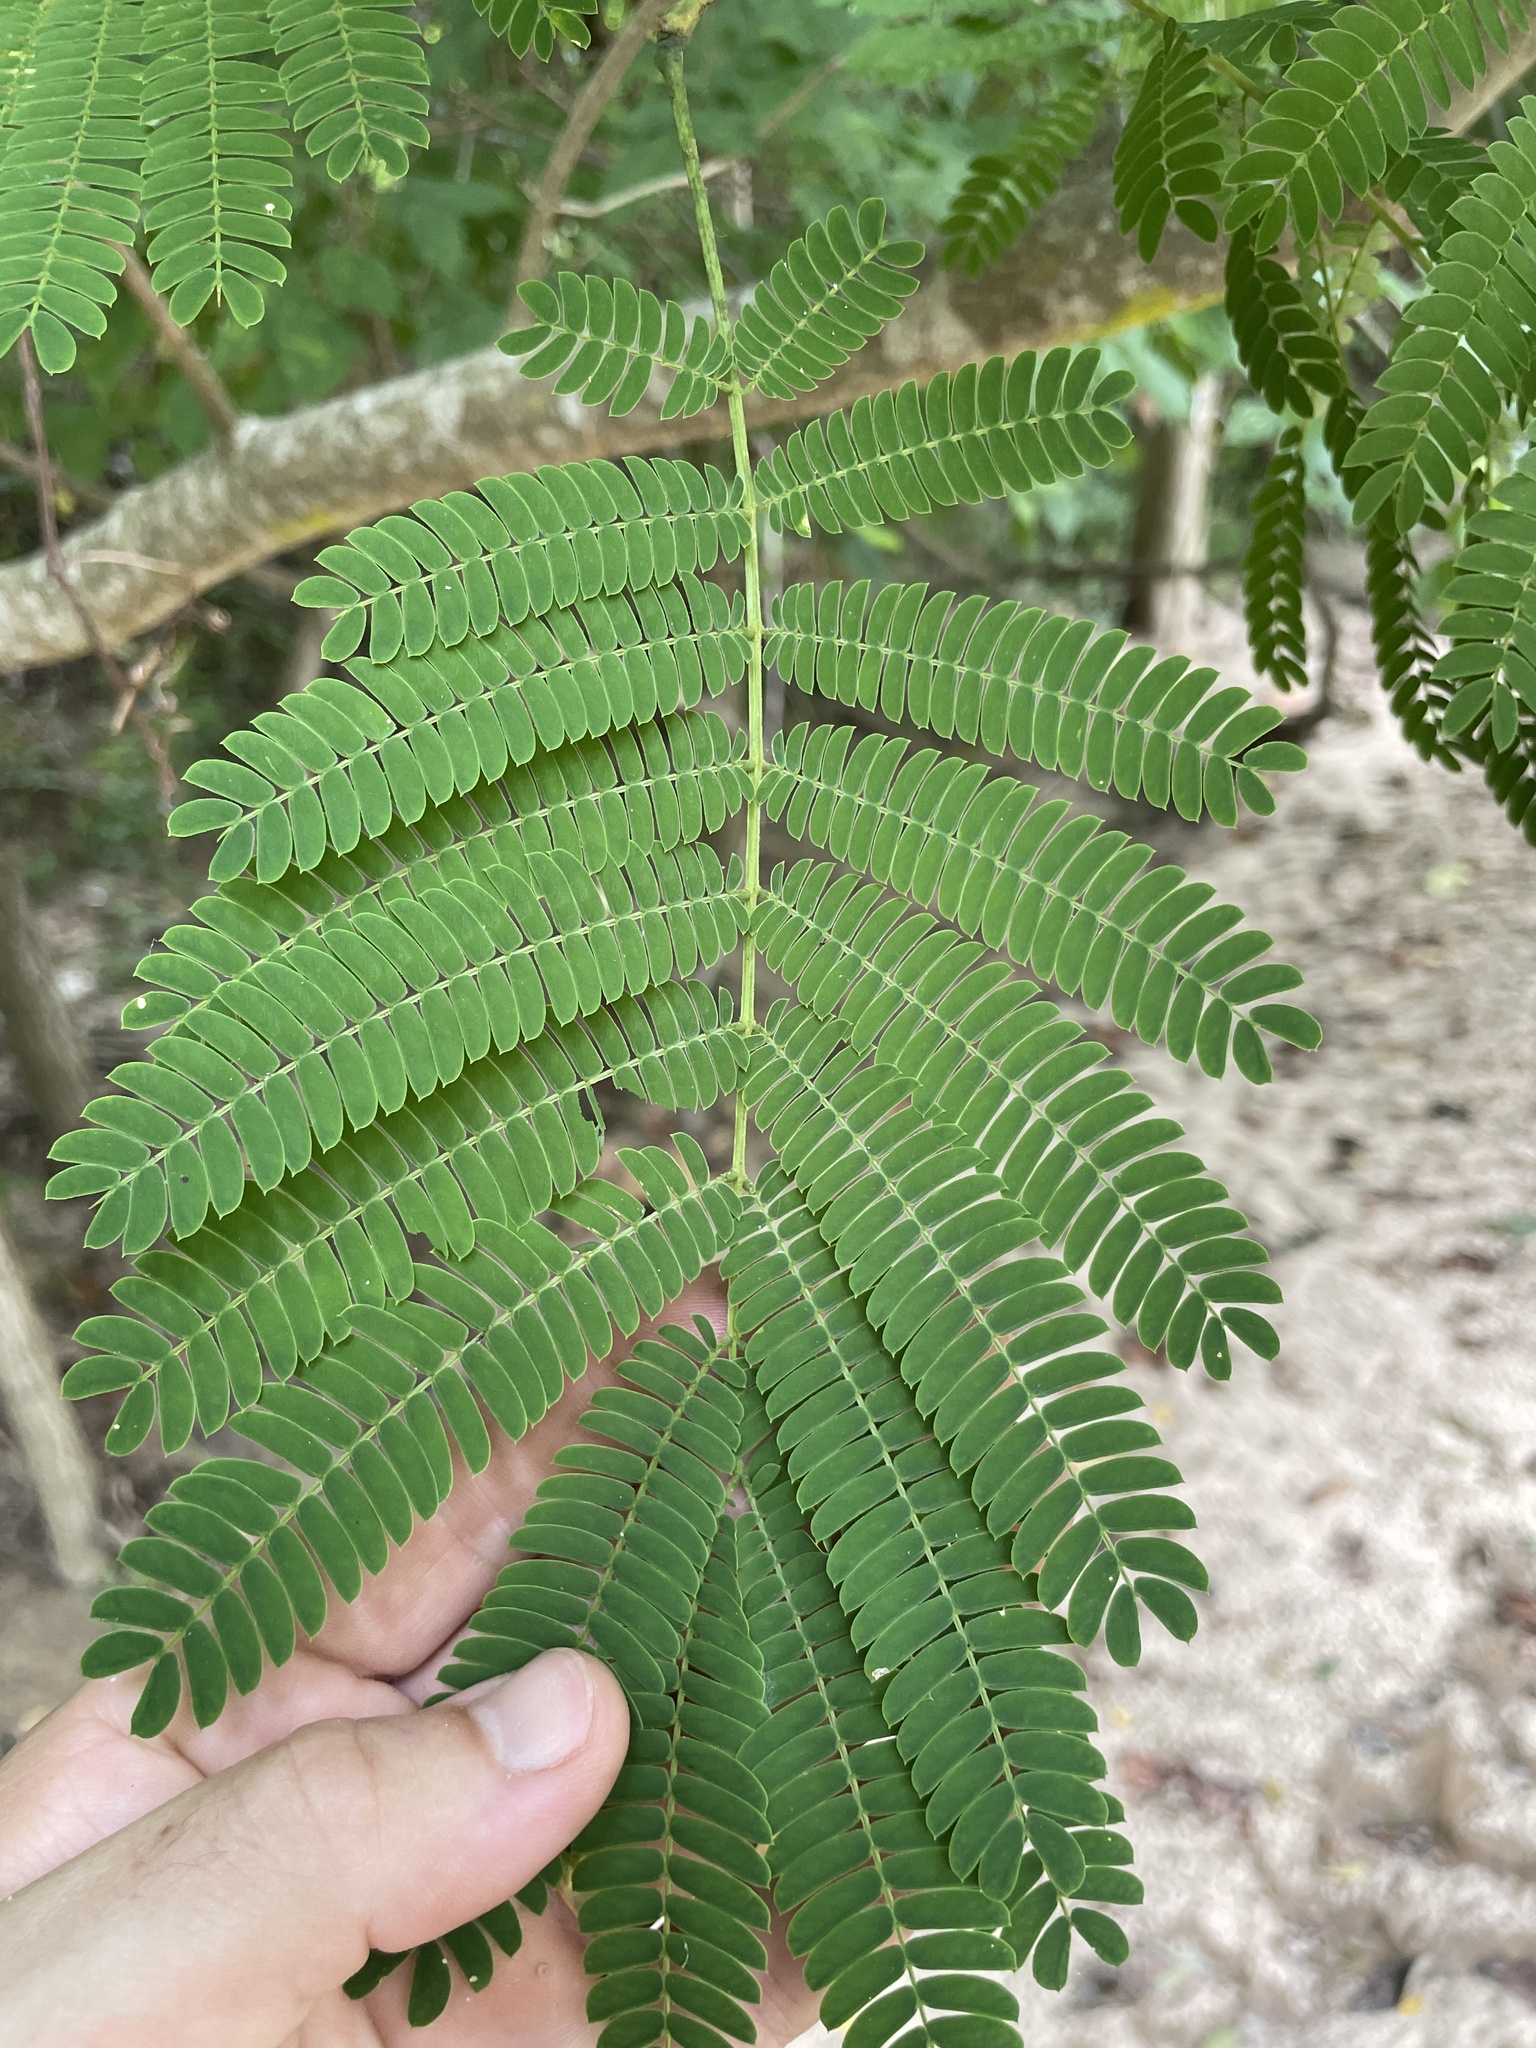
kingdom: Plantae
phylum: Tracheophyta
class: Magnoliopsida
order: Fabales
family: Fabaceae
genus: Albizia
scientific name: Albizia julibrissin
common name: Silktree
